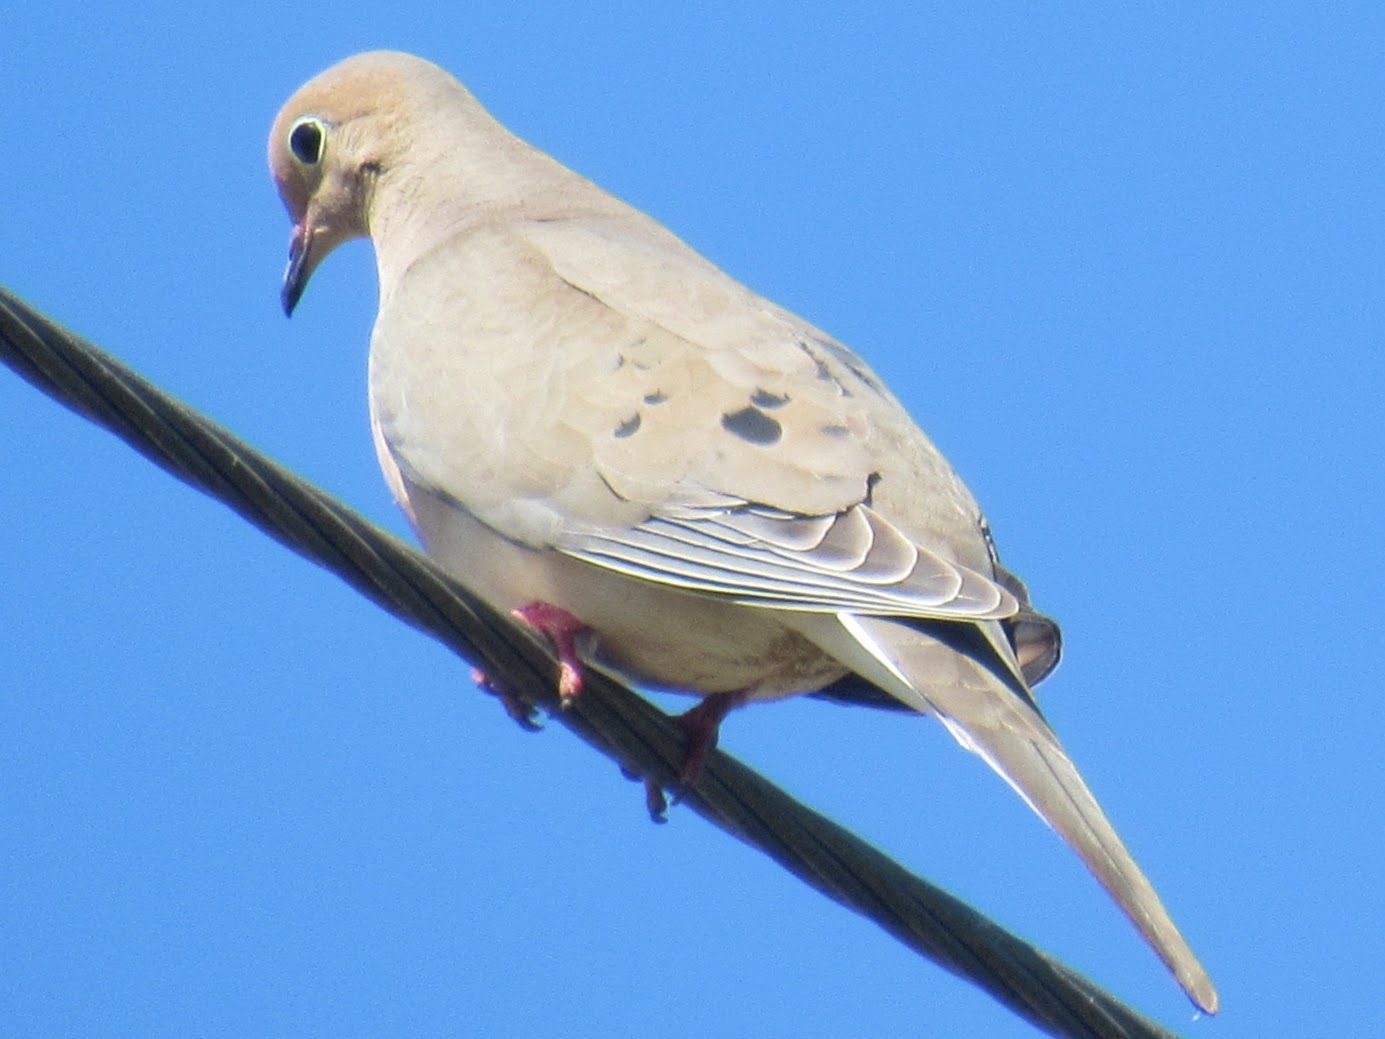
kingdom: Animalia
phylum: Chordata
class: Aves
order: Columbiformes
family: Columbidae
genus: Zenaida
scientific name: Zenaida macroura
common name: Mourning dove
